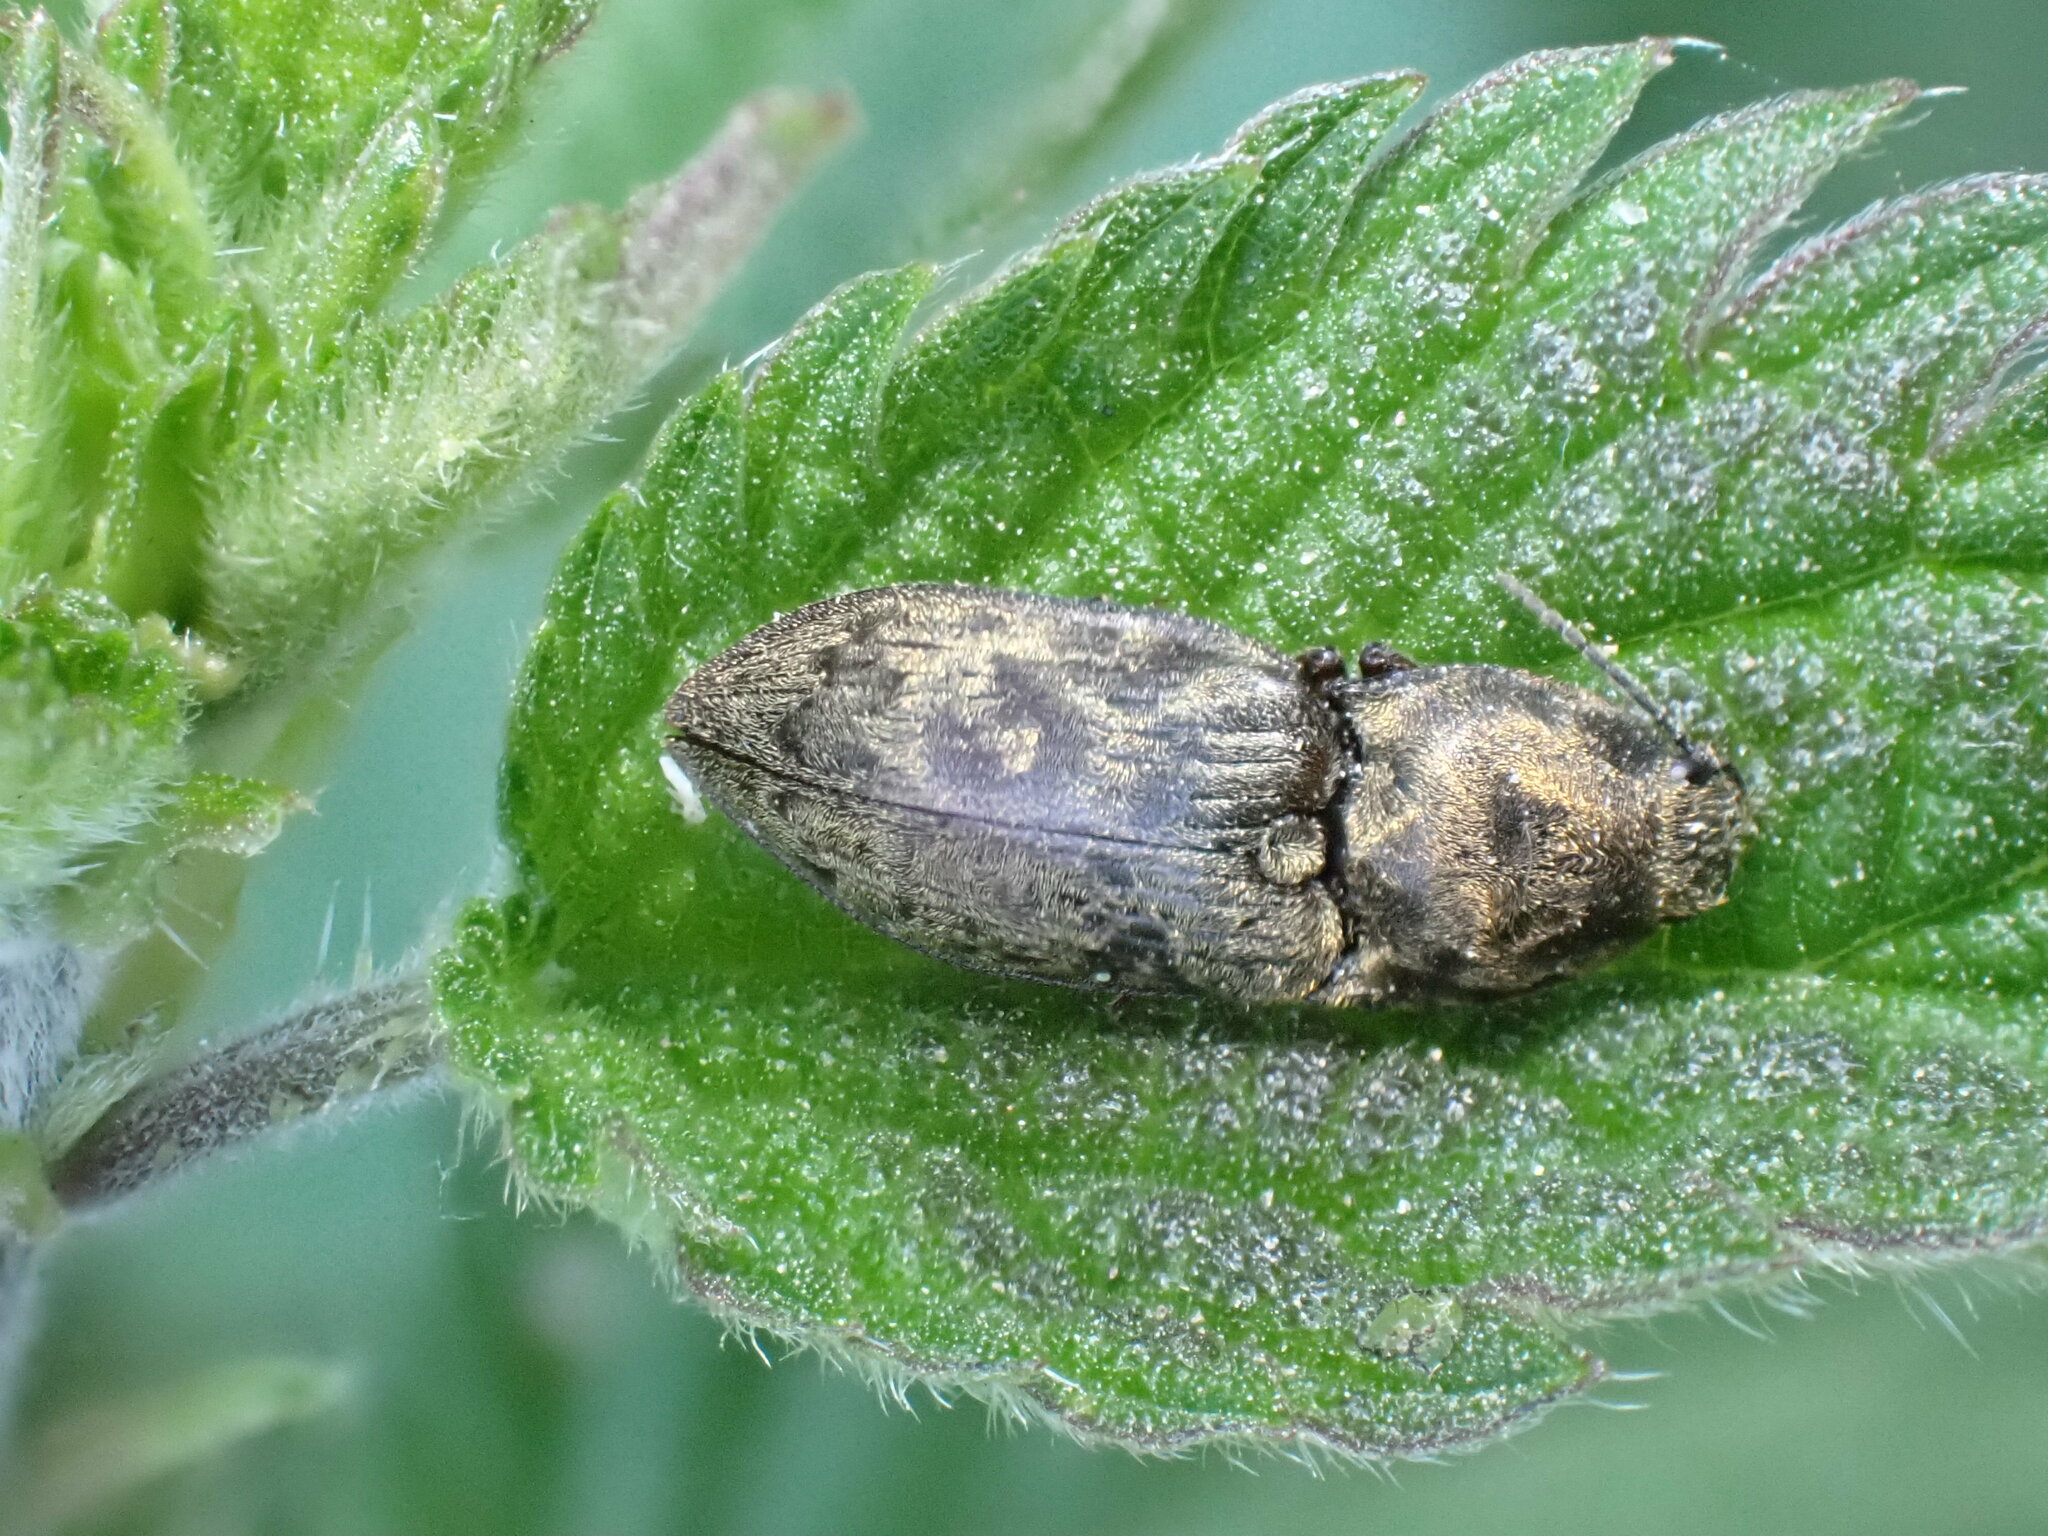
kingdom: Animalia
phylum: Arthropoda
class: Insecta
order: Coleoptera
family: Elateridae
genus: Prosternon
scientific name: Prosternon tessellatum
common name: Chequered click beetle
